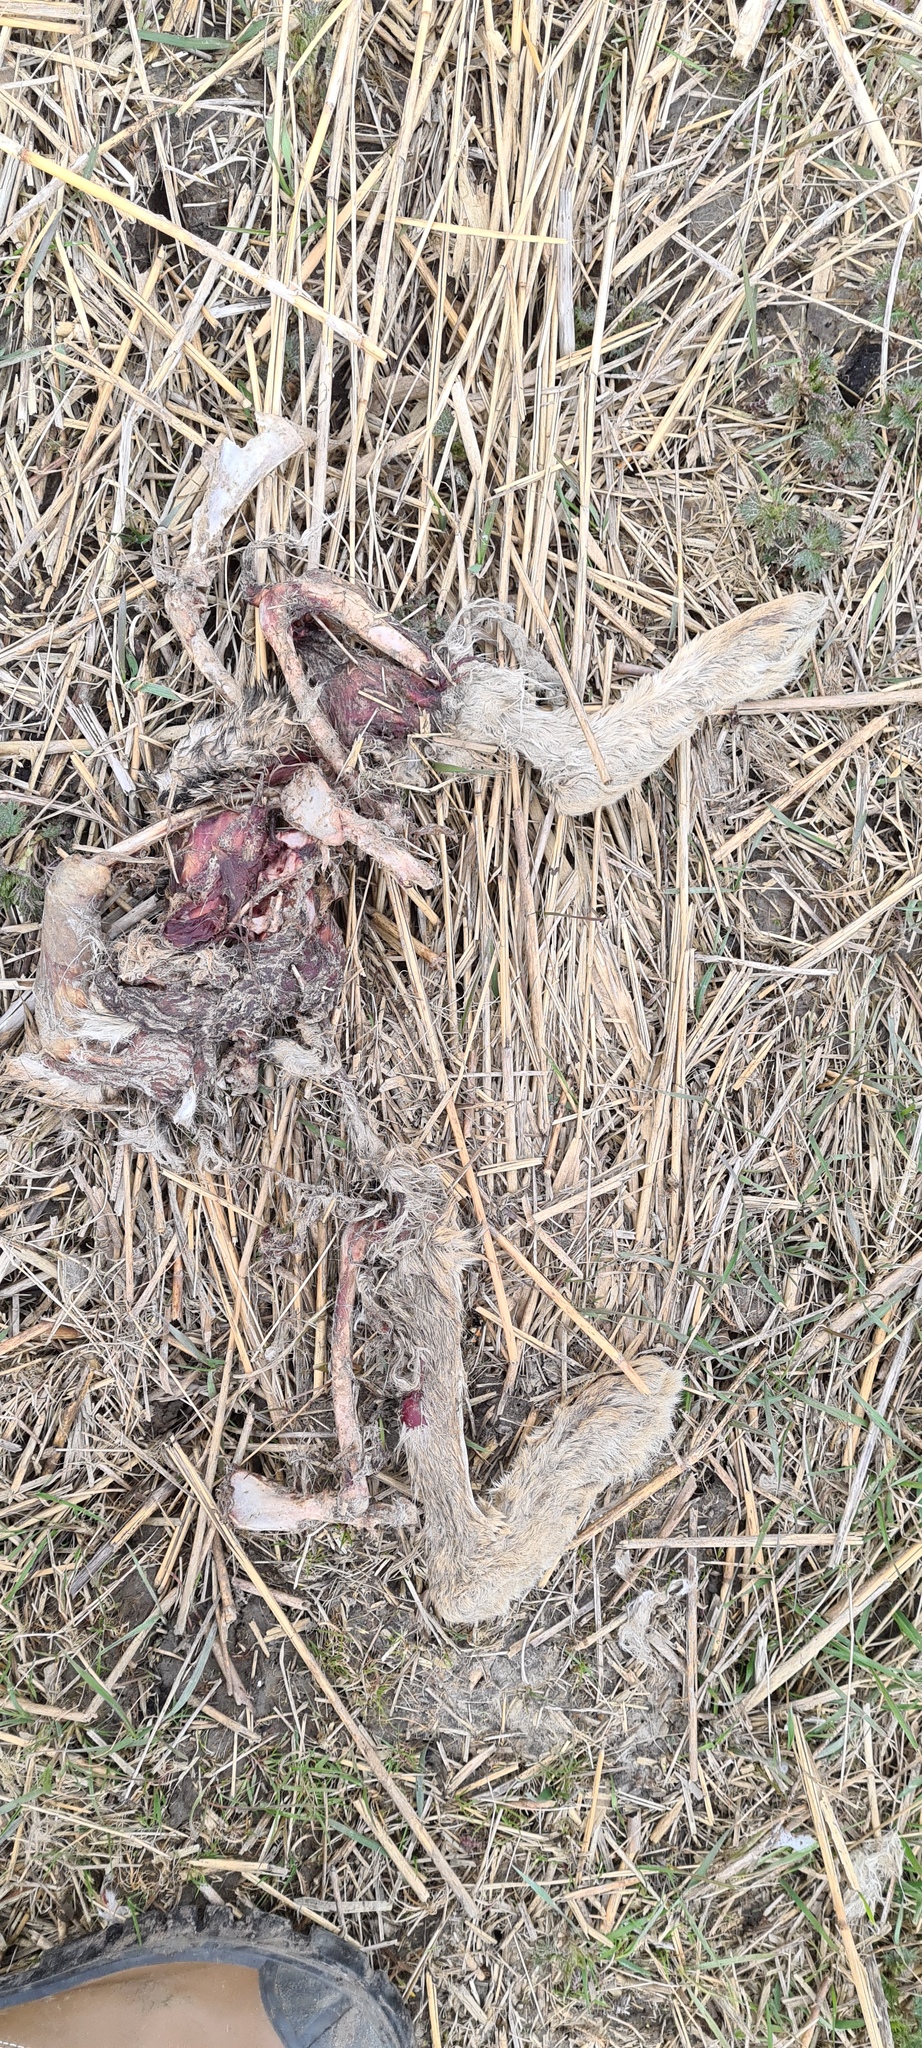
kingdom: Animalia
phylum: Chordata
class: Mammalia
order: Lagomorpha
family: Leporidae
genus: Lepus
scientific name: Lepus europaeus
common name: European hare
